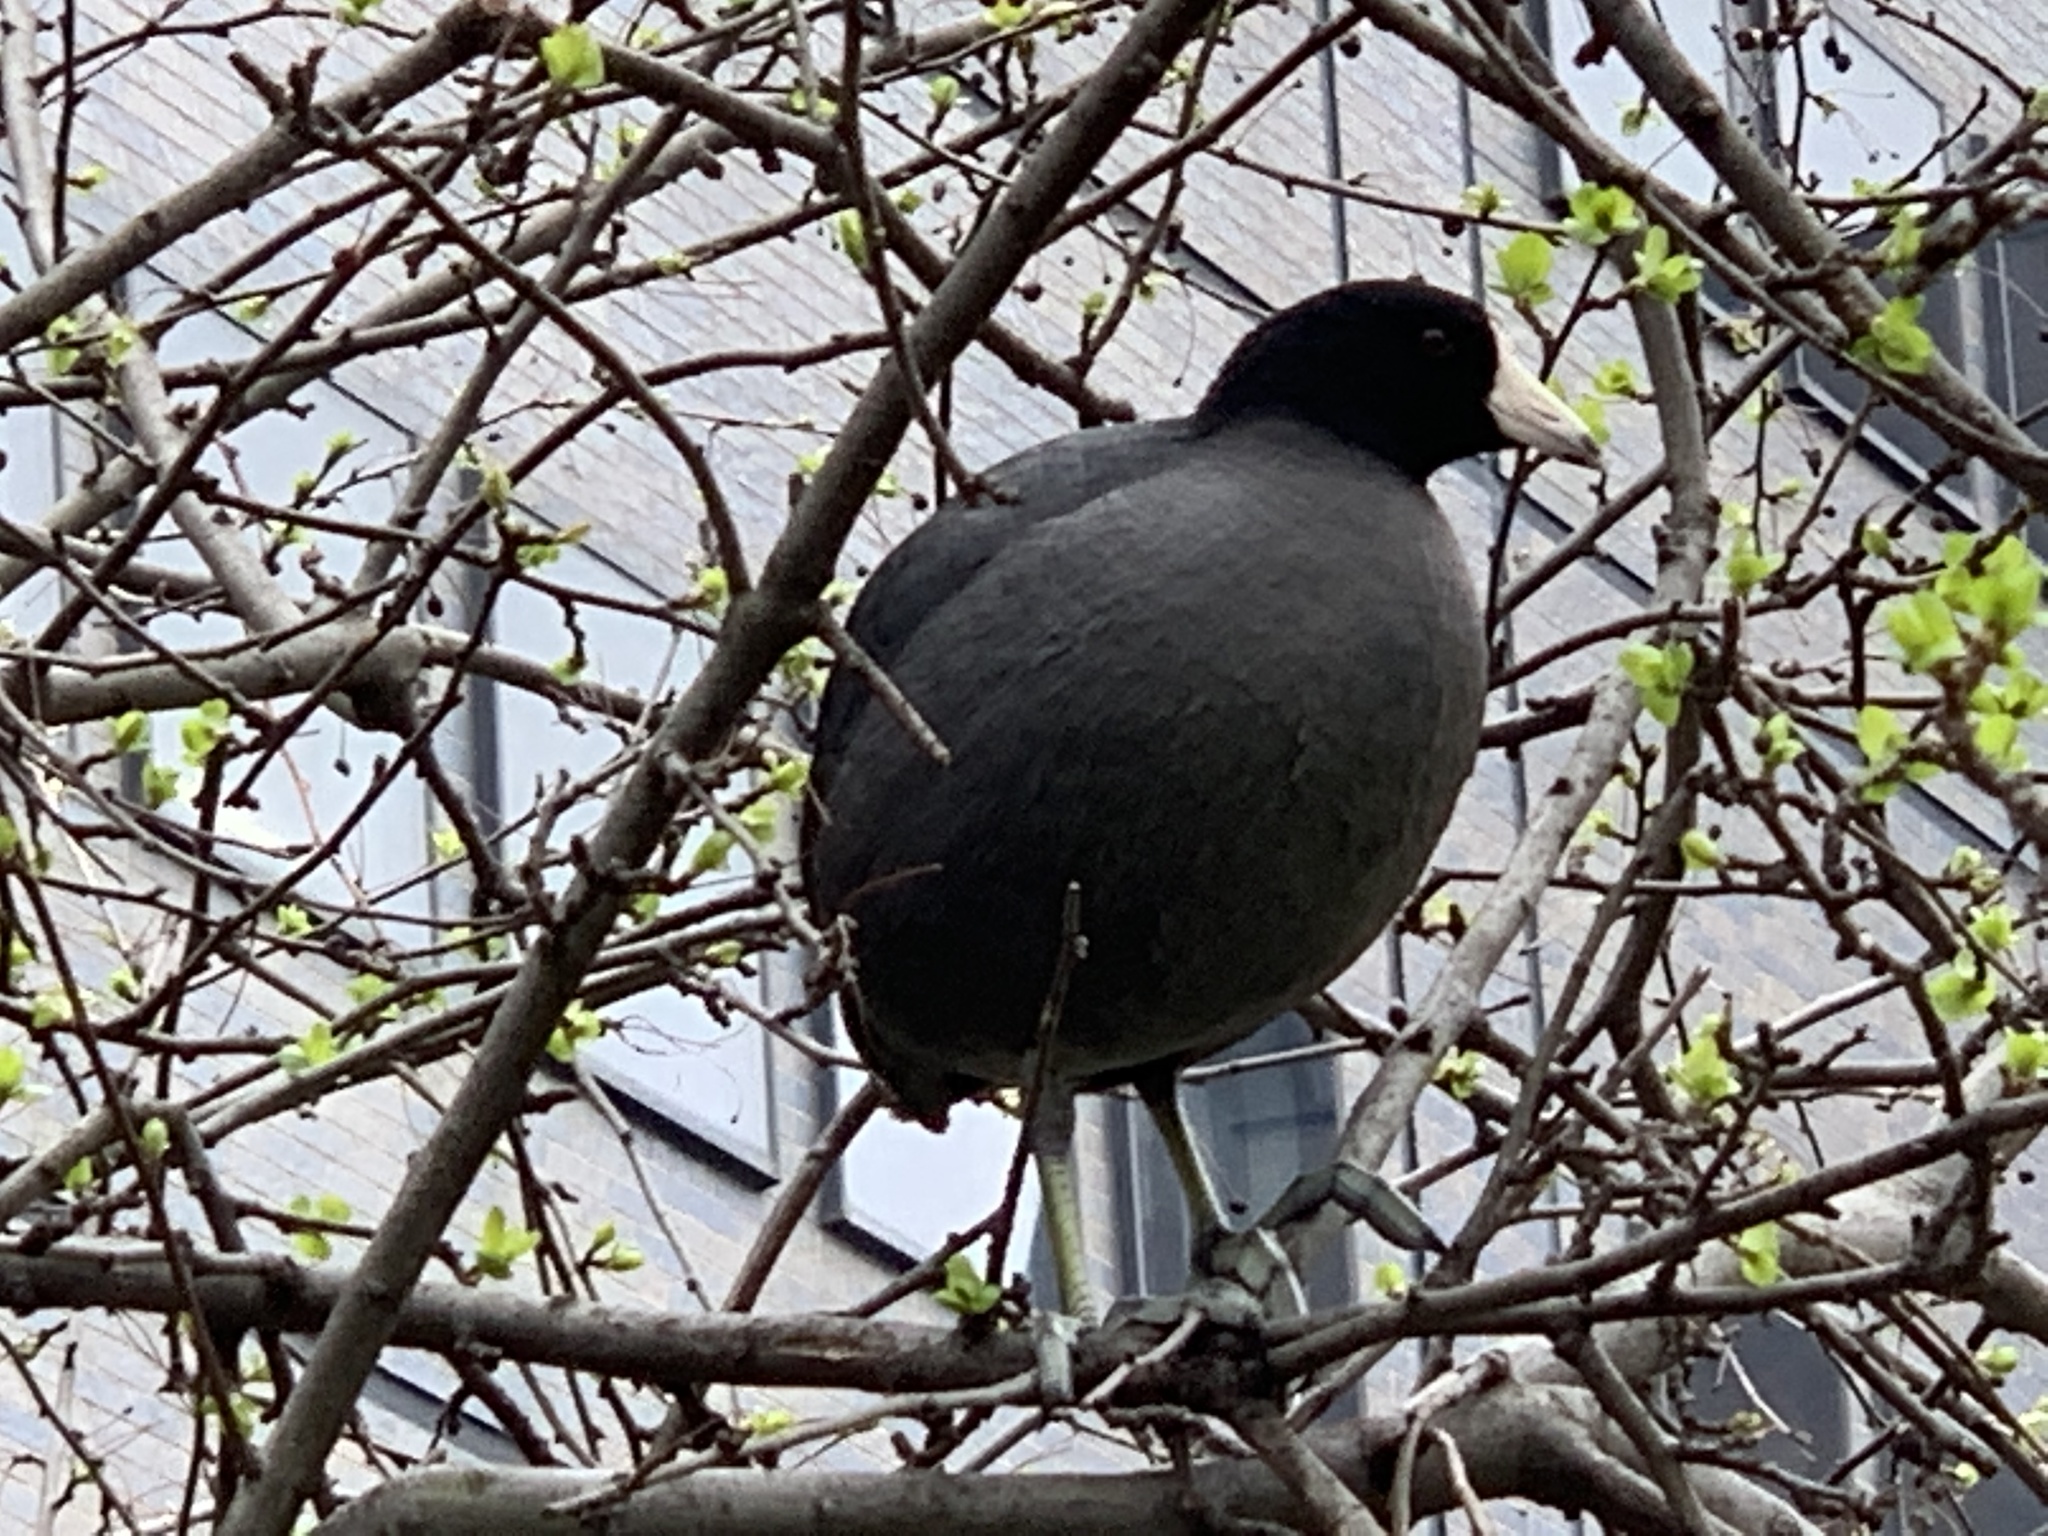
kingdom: Animalia
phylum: Chordata
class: Aves
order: Gruiformes
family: Rallidae
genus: Fulica
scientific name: Fulica americana
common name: American coot
